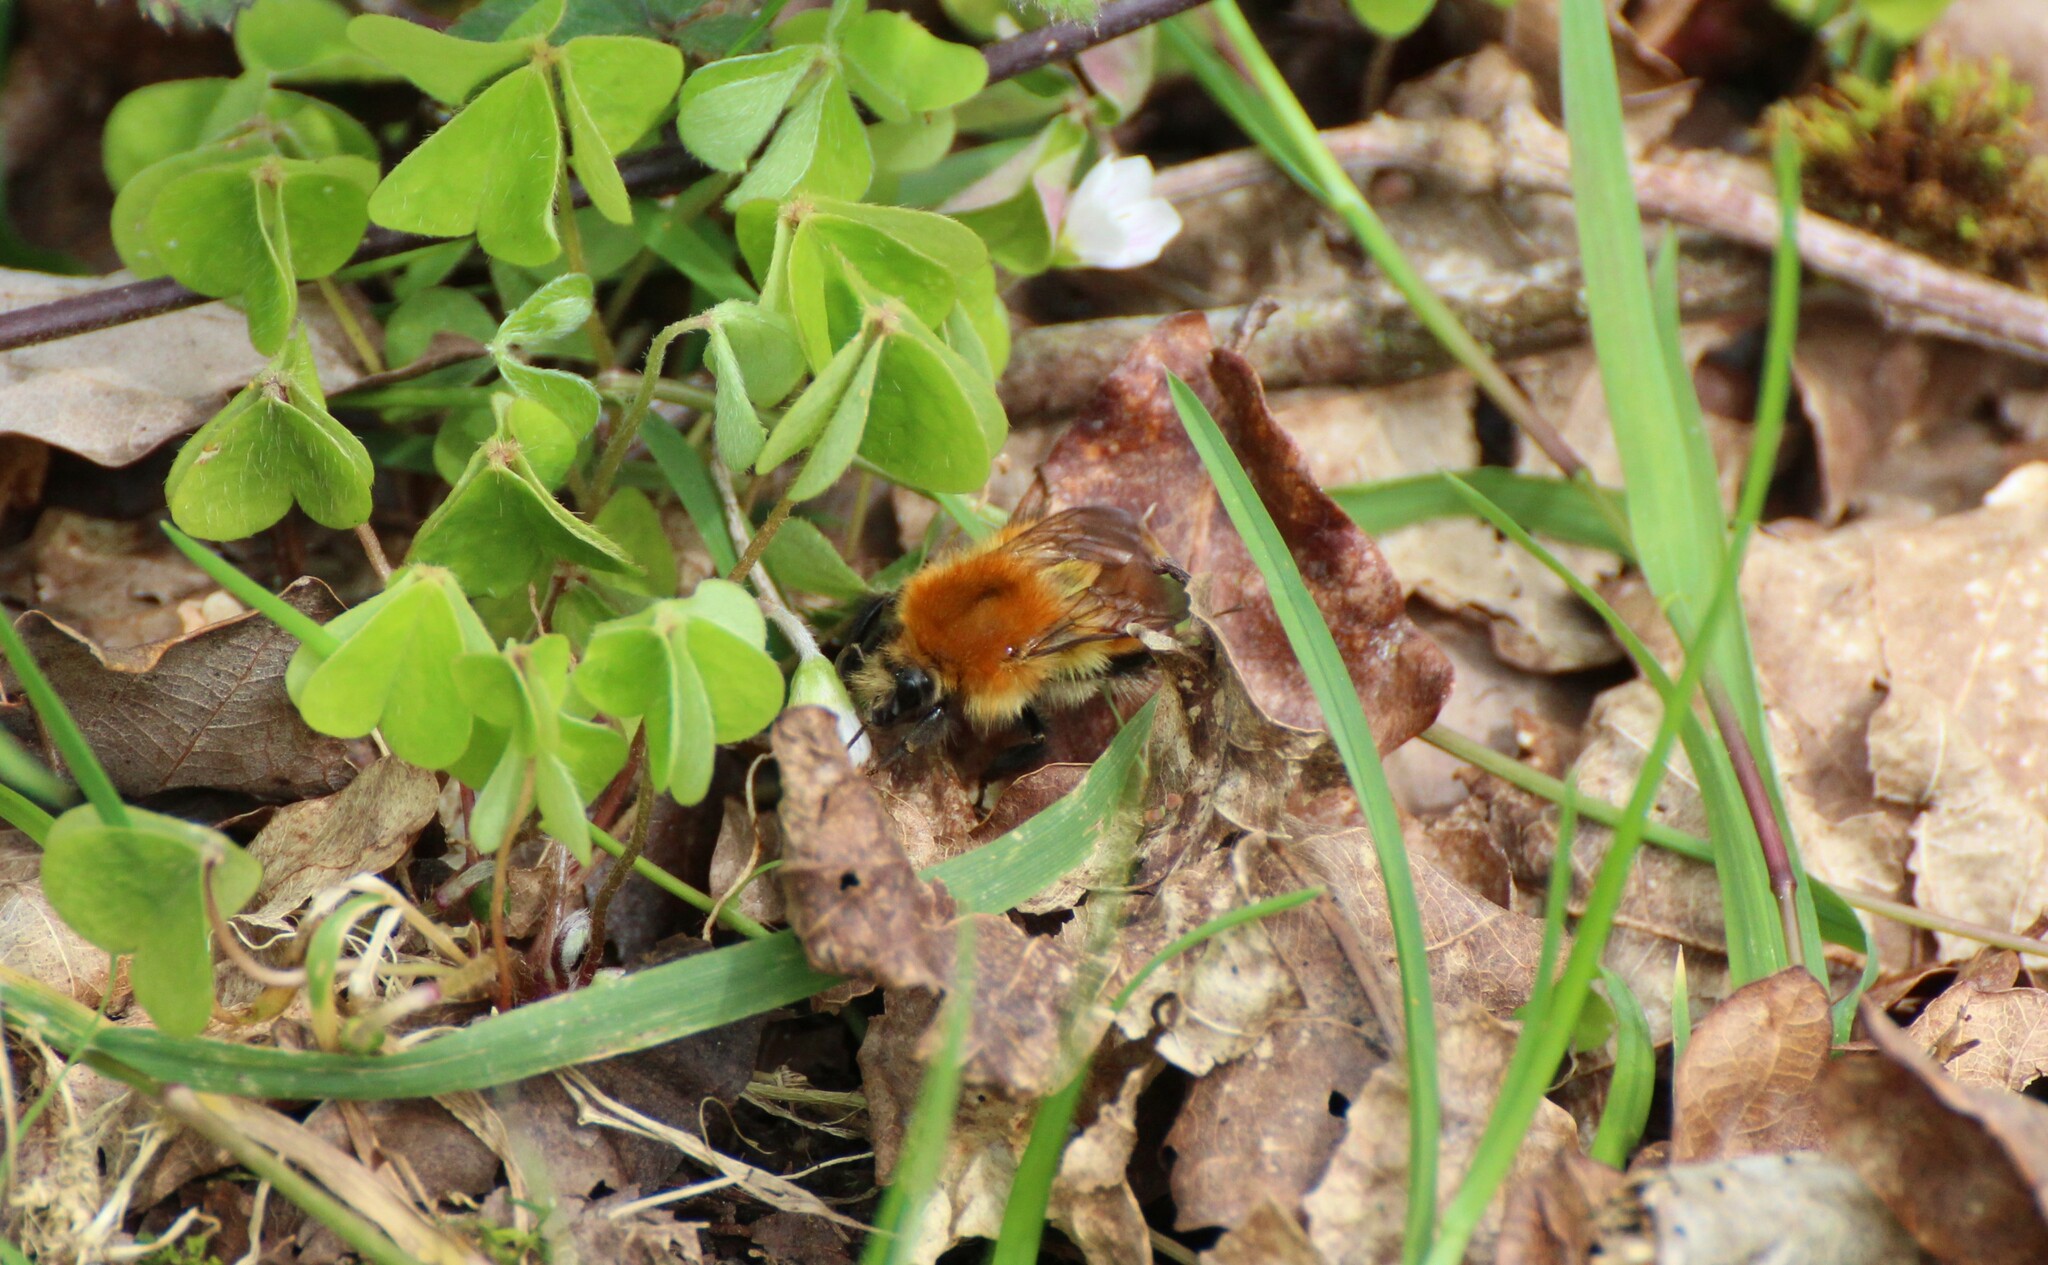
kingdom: Animalia
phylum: Arthropoda
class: Insecta
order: Hymenoptera
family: Apidae
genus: Bombus
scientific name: Bombus pascuorum
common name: Common carder bee
